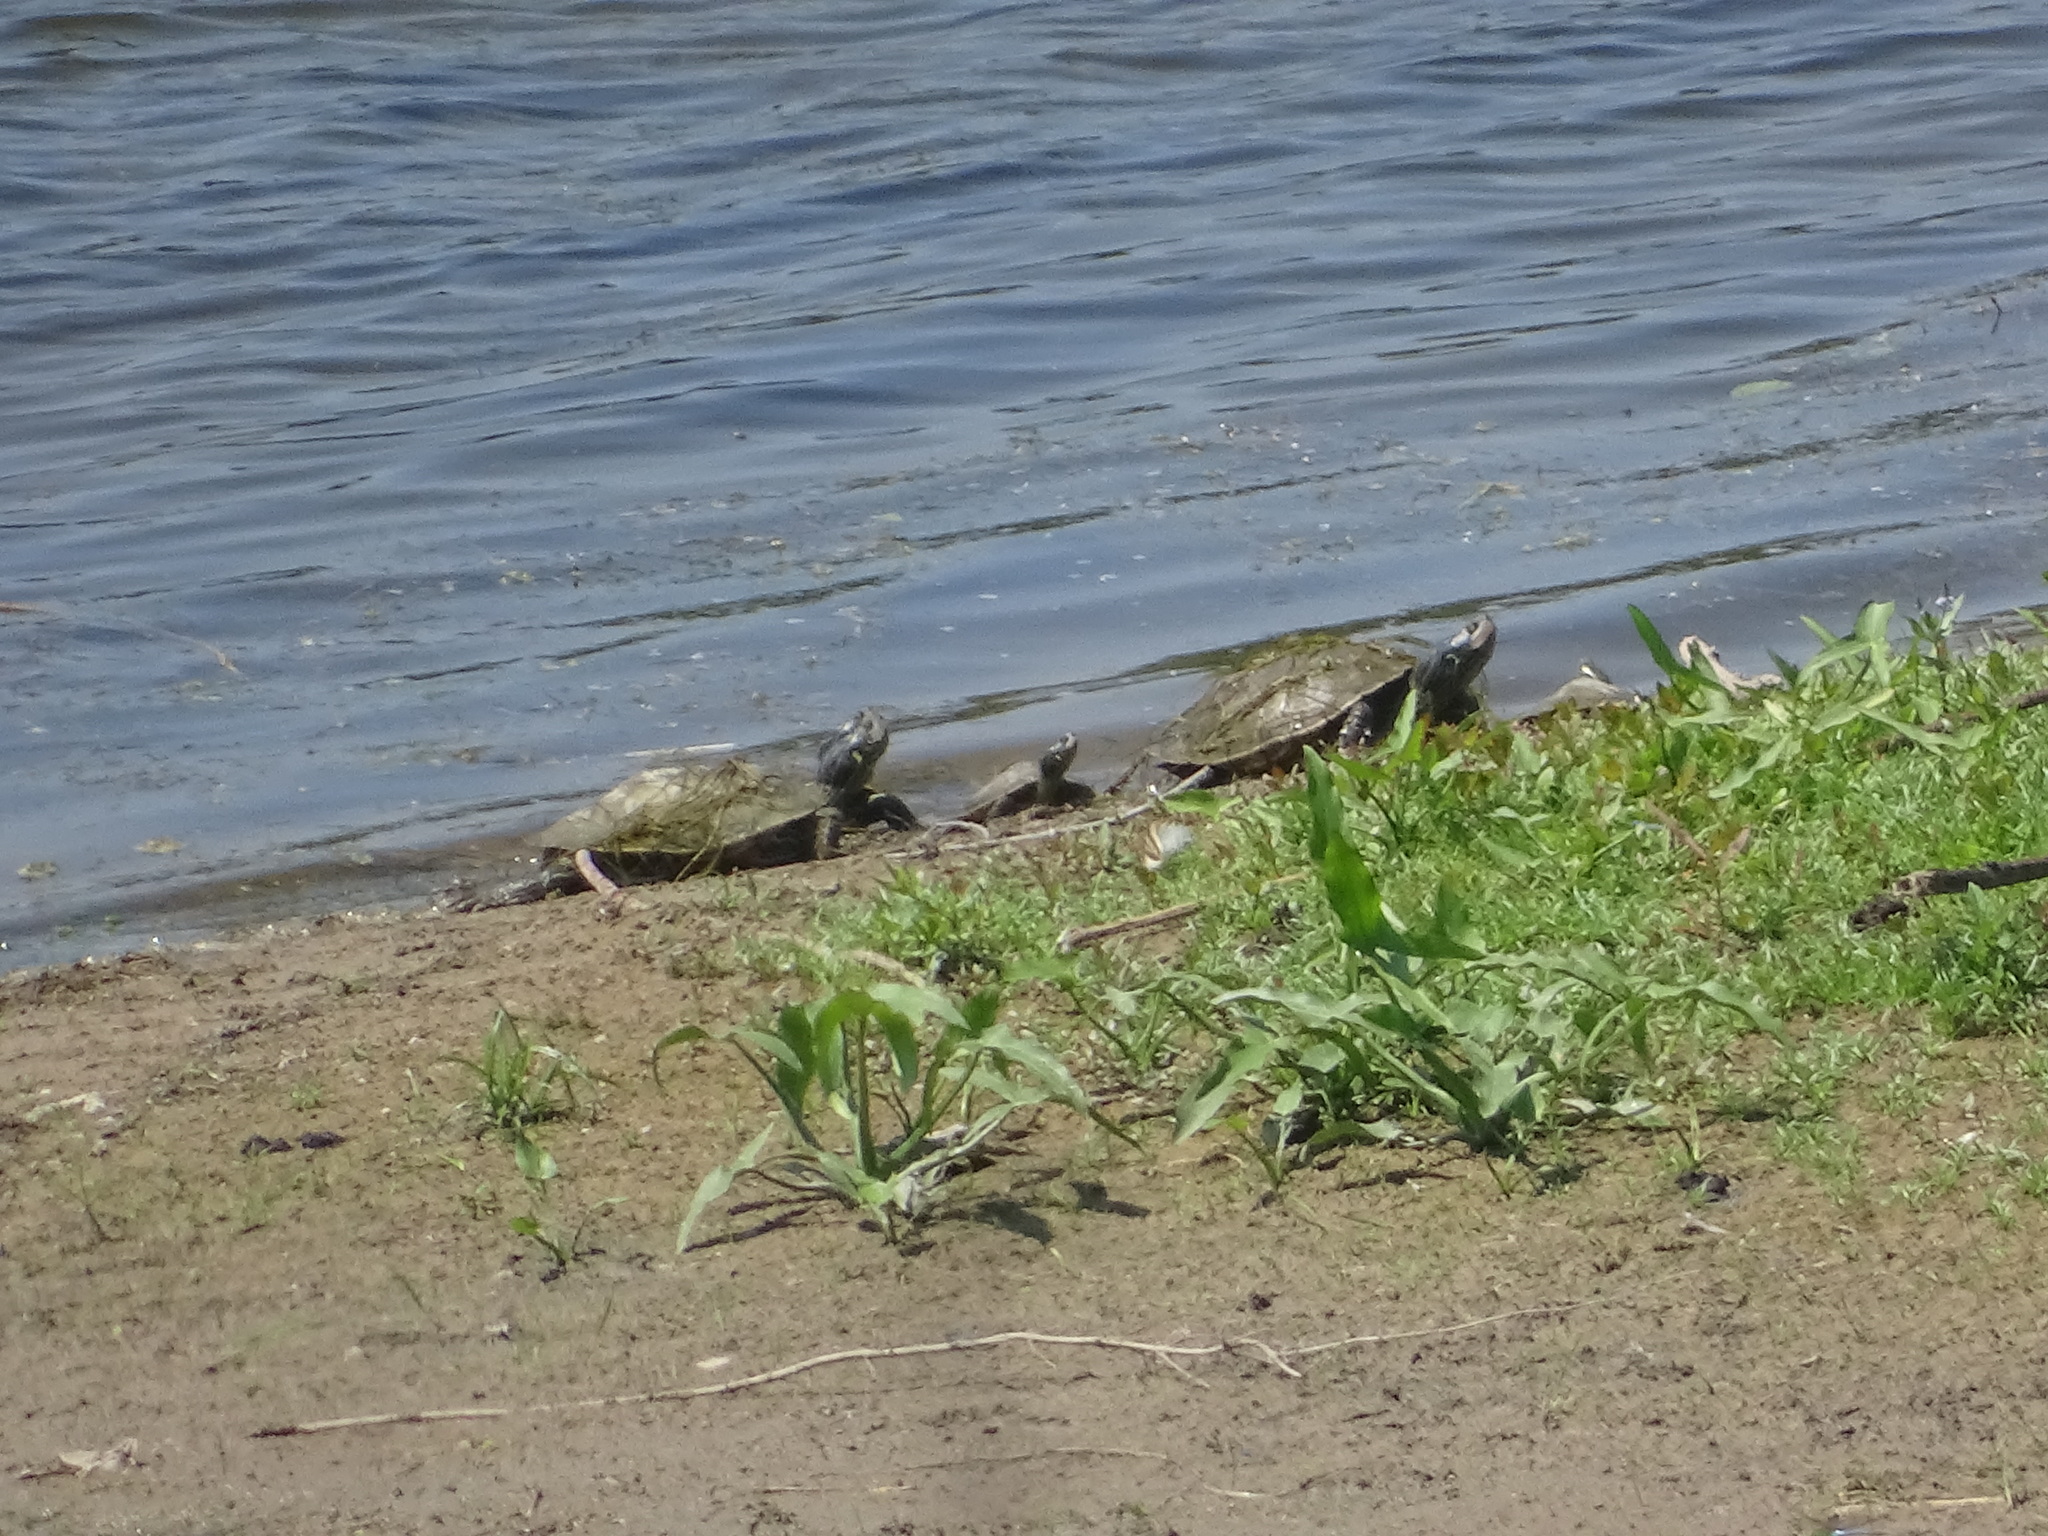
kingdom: Animalia
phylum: Chordata
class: Testudines
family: Emydidae
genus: Graptemys
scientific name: Graptemys geographica
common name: Common map turtle
